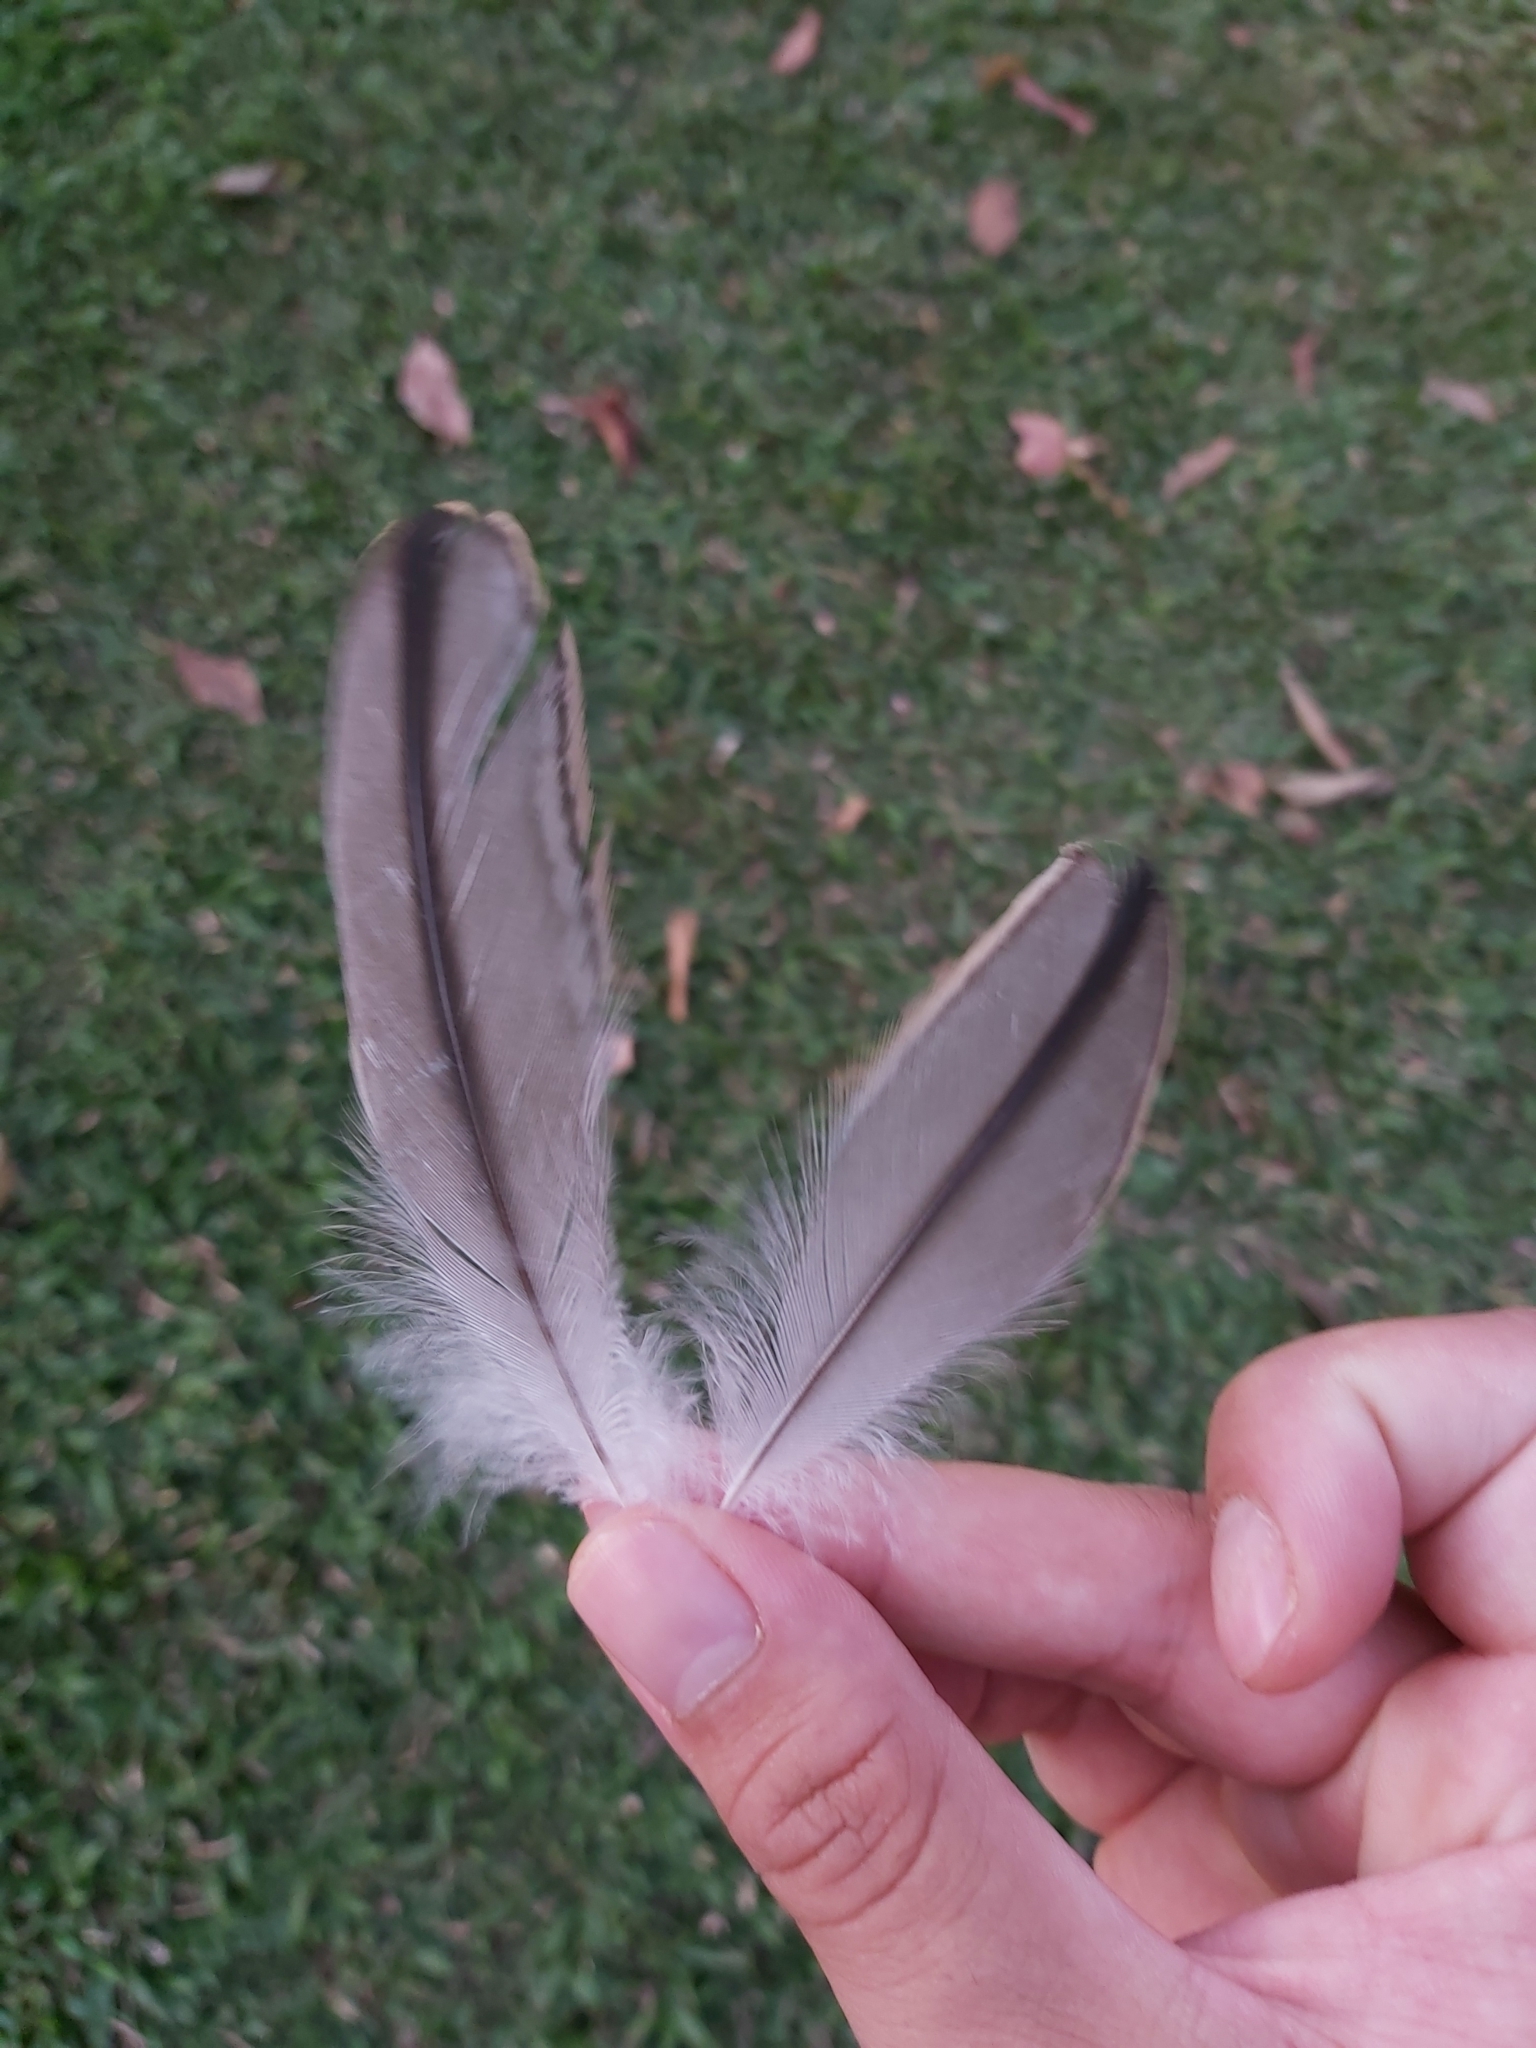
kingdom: Animalia
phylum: Chordata
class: Aves
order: Charadriiformes
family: Burhinidae
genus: Burhinus
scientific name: Burhinus grallarius
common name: Bush stone-curlew
